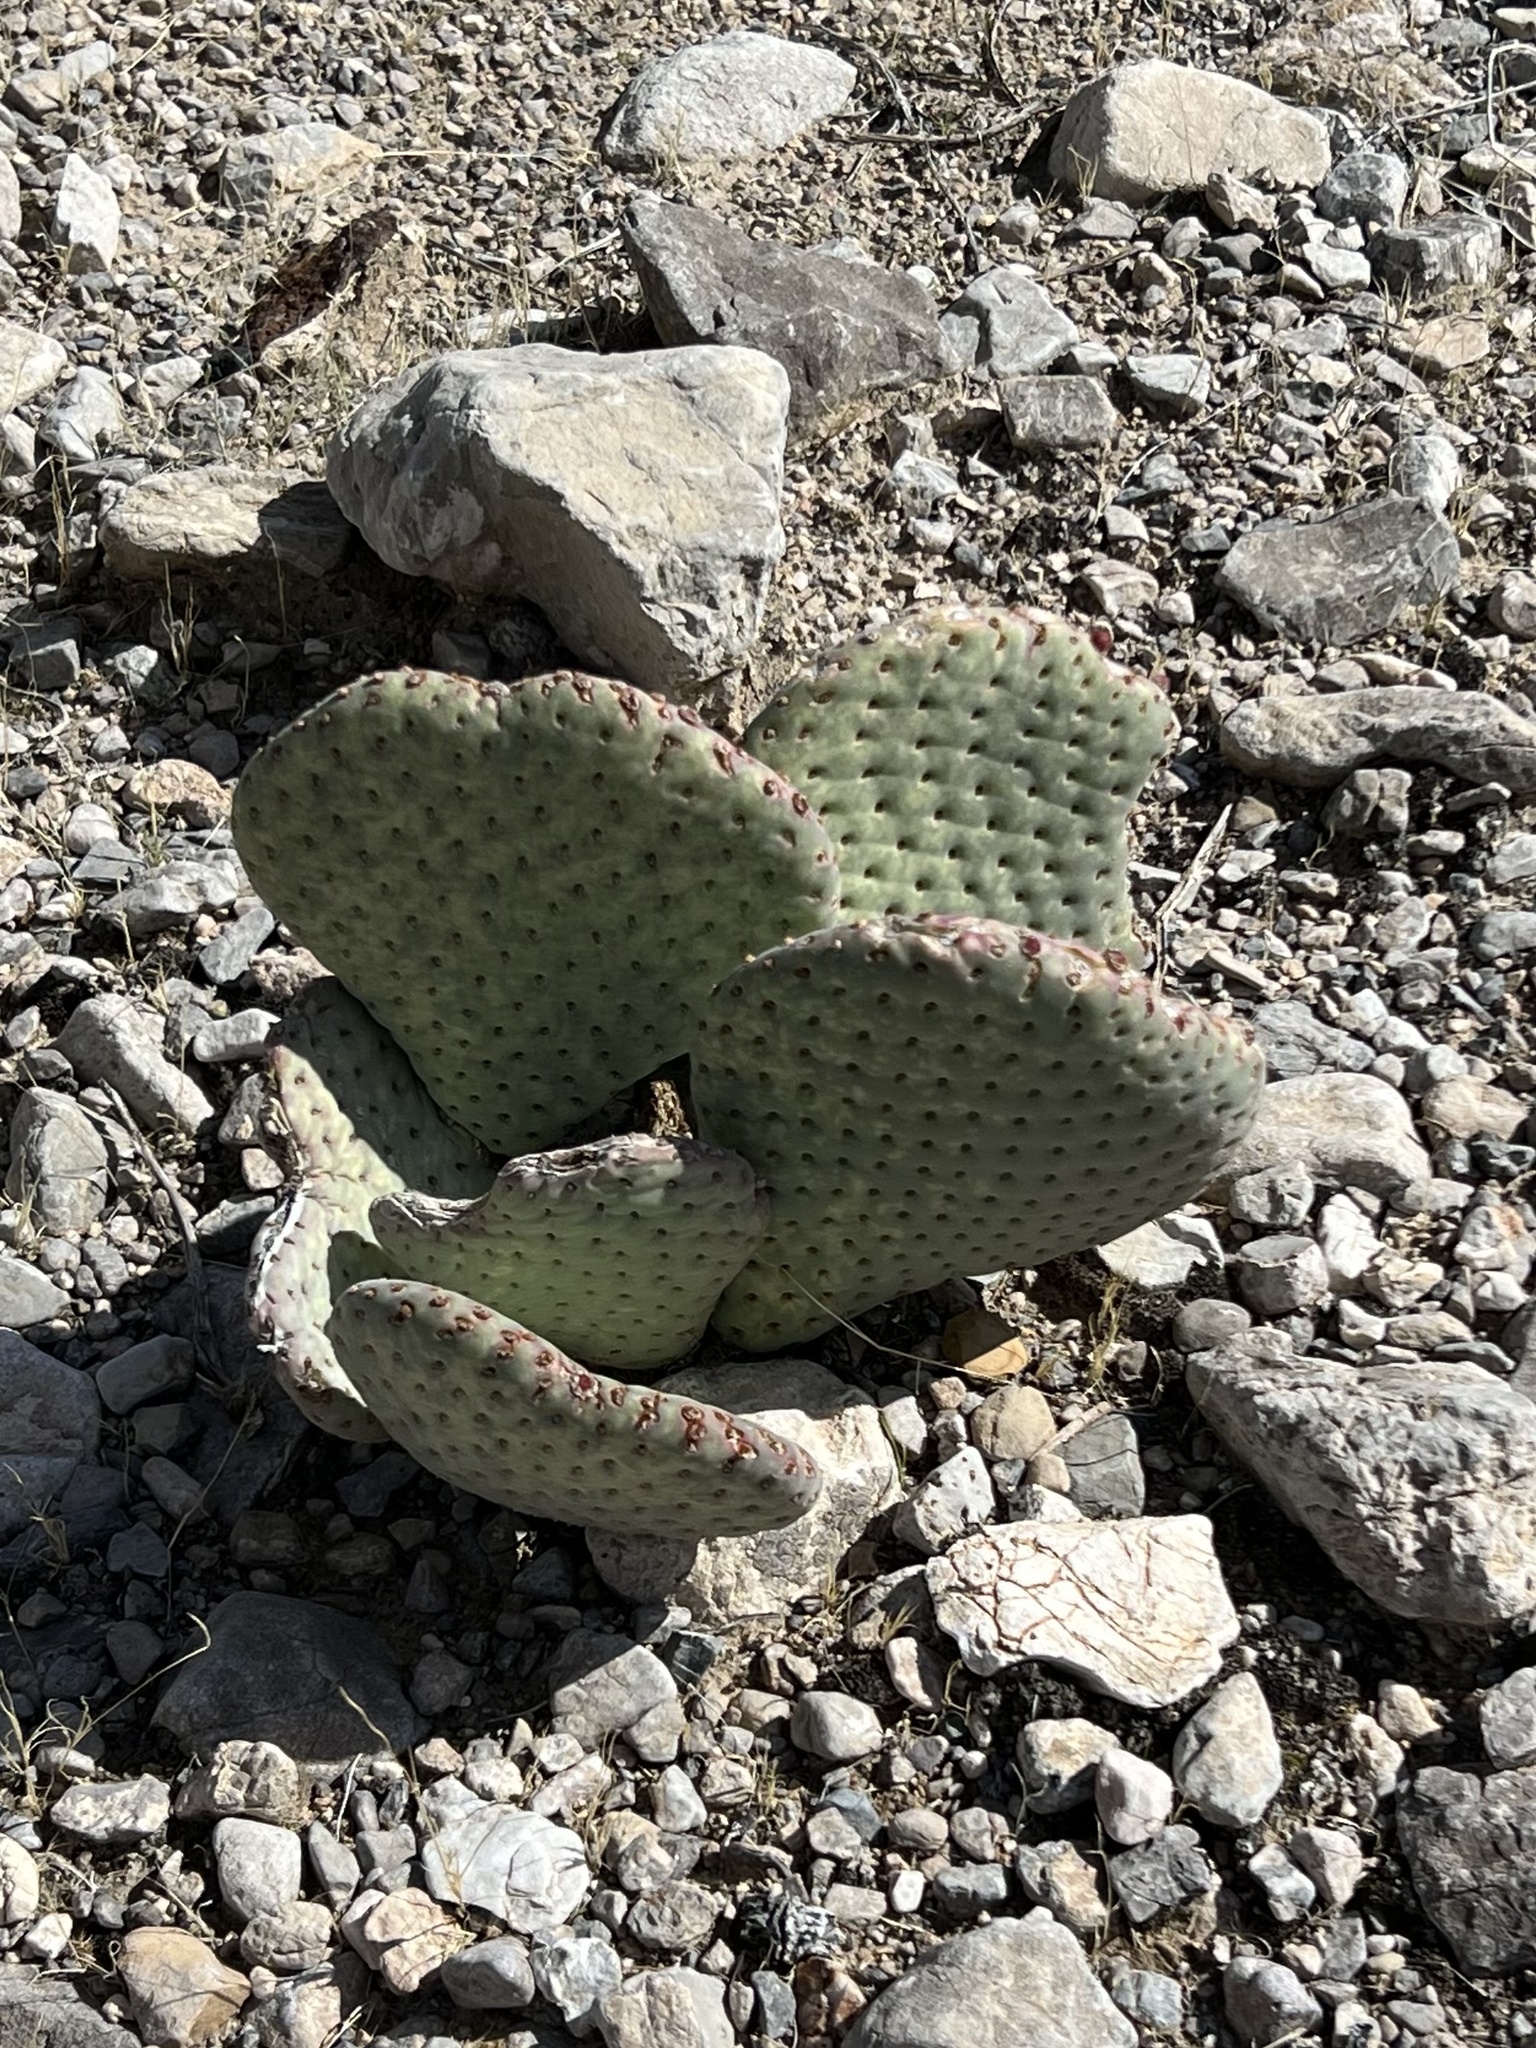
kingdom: Plantae
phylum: Tracheophyta
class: Magnoliopsida
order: Caryophyllales
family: Cactaceae
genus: Opuntia
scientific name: Opuntia basilaris
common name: Beavertail prickly-pear
